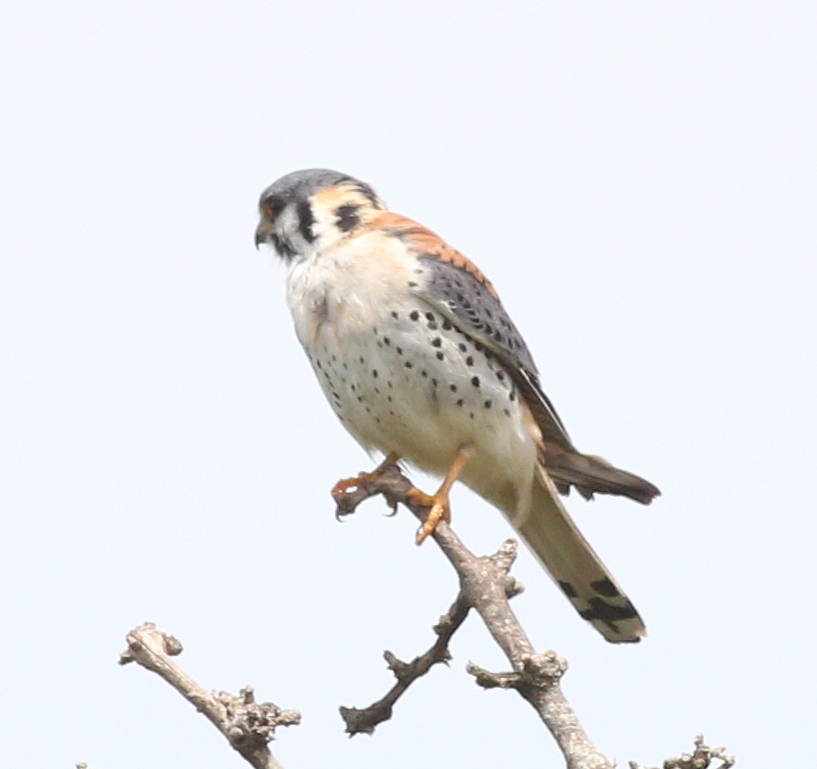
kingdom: Animalia
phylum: Chordata
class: Aves
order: Falconiformes
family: Falconidae
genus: Falco
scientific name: Falco sparverius
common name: American kestrel
